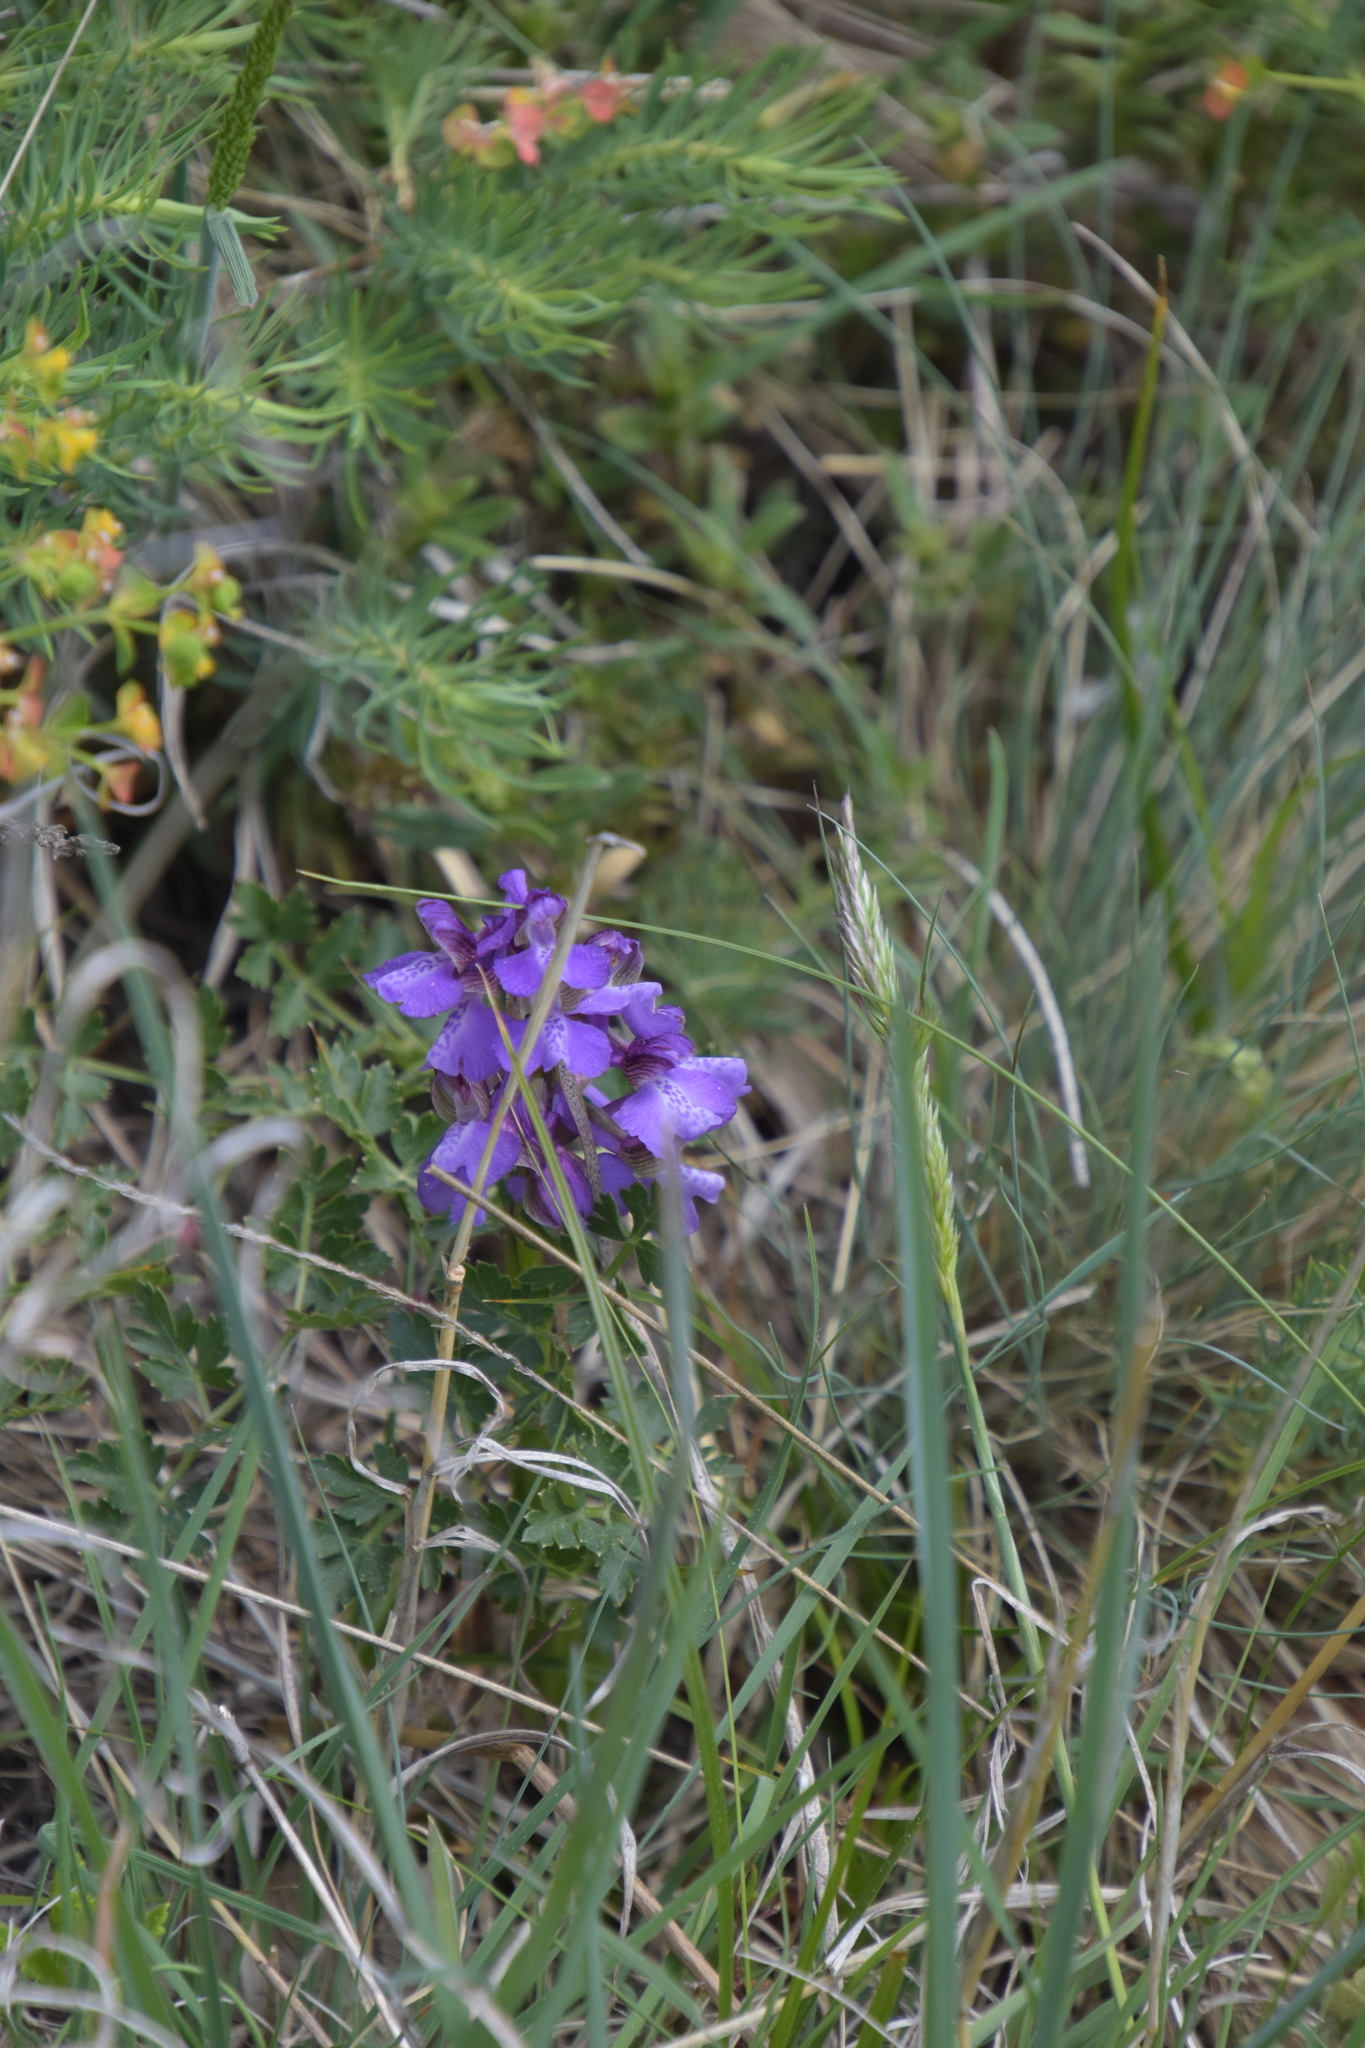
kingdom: Plantae
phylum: Tracheophyta
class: Liliopsida
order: Asparagales
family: Orchidaceae
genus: Anacamptis
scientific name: Anacamptis morio
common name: Green-winged orchid
